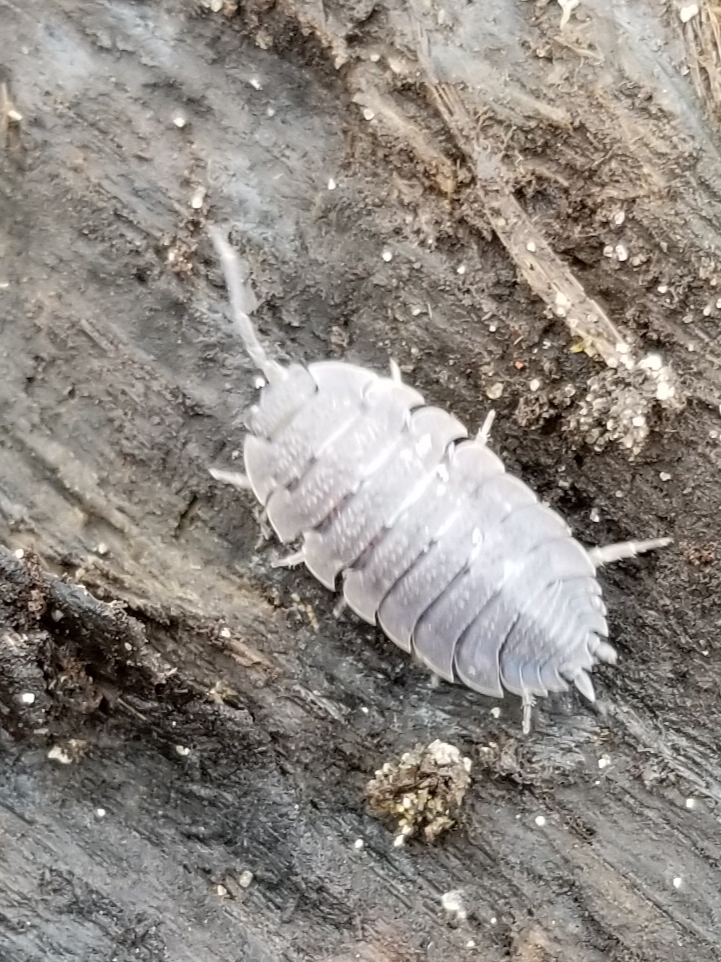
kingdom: Animalia
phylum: Arthropoda
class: Malacostraca
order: Isopoda
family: Porcellionidae
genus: Porcellio
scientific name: Porcellio scaber
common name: Common rough woodlouse
